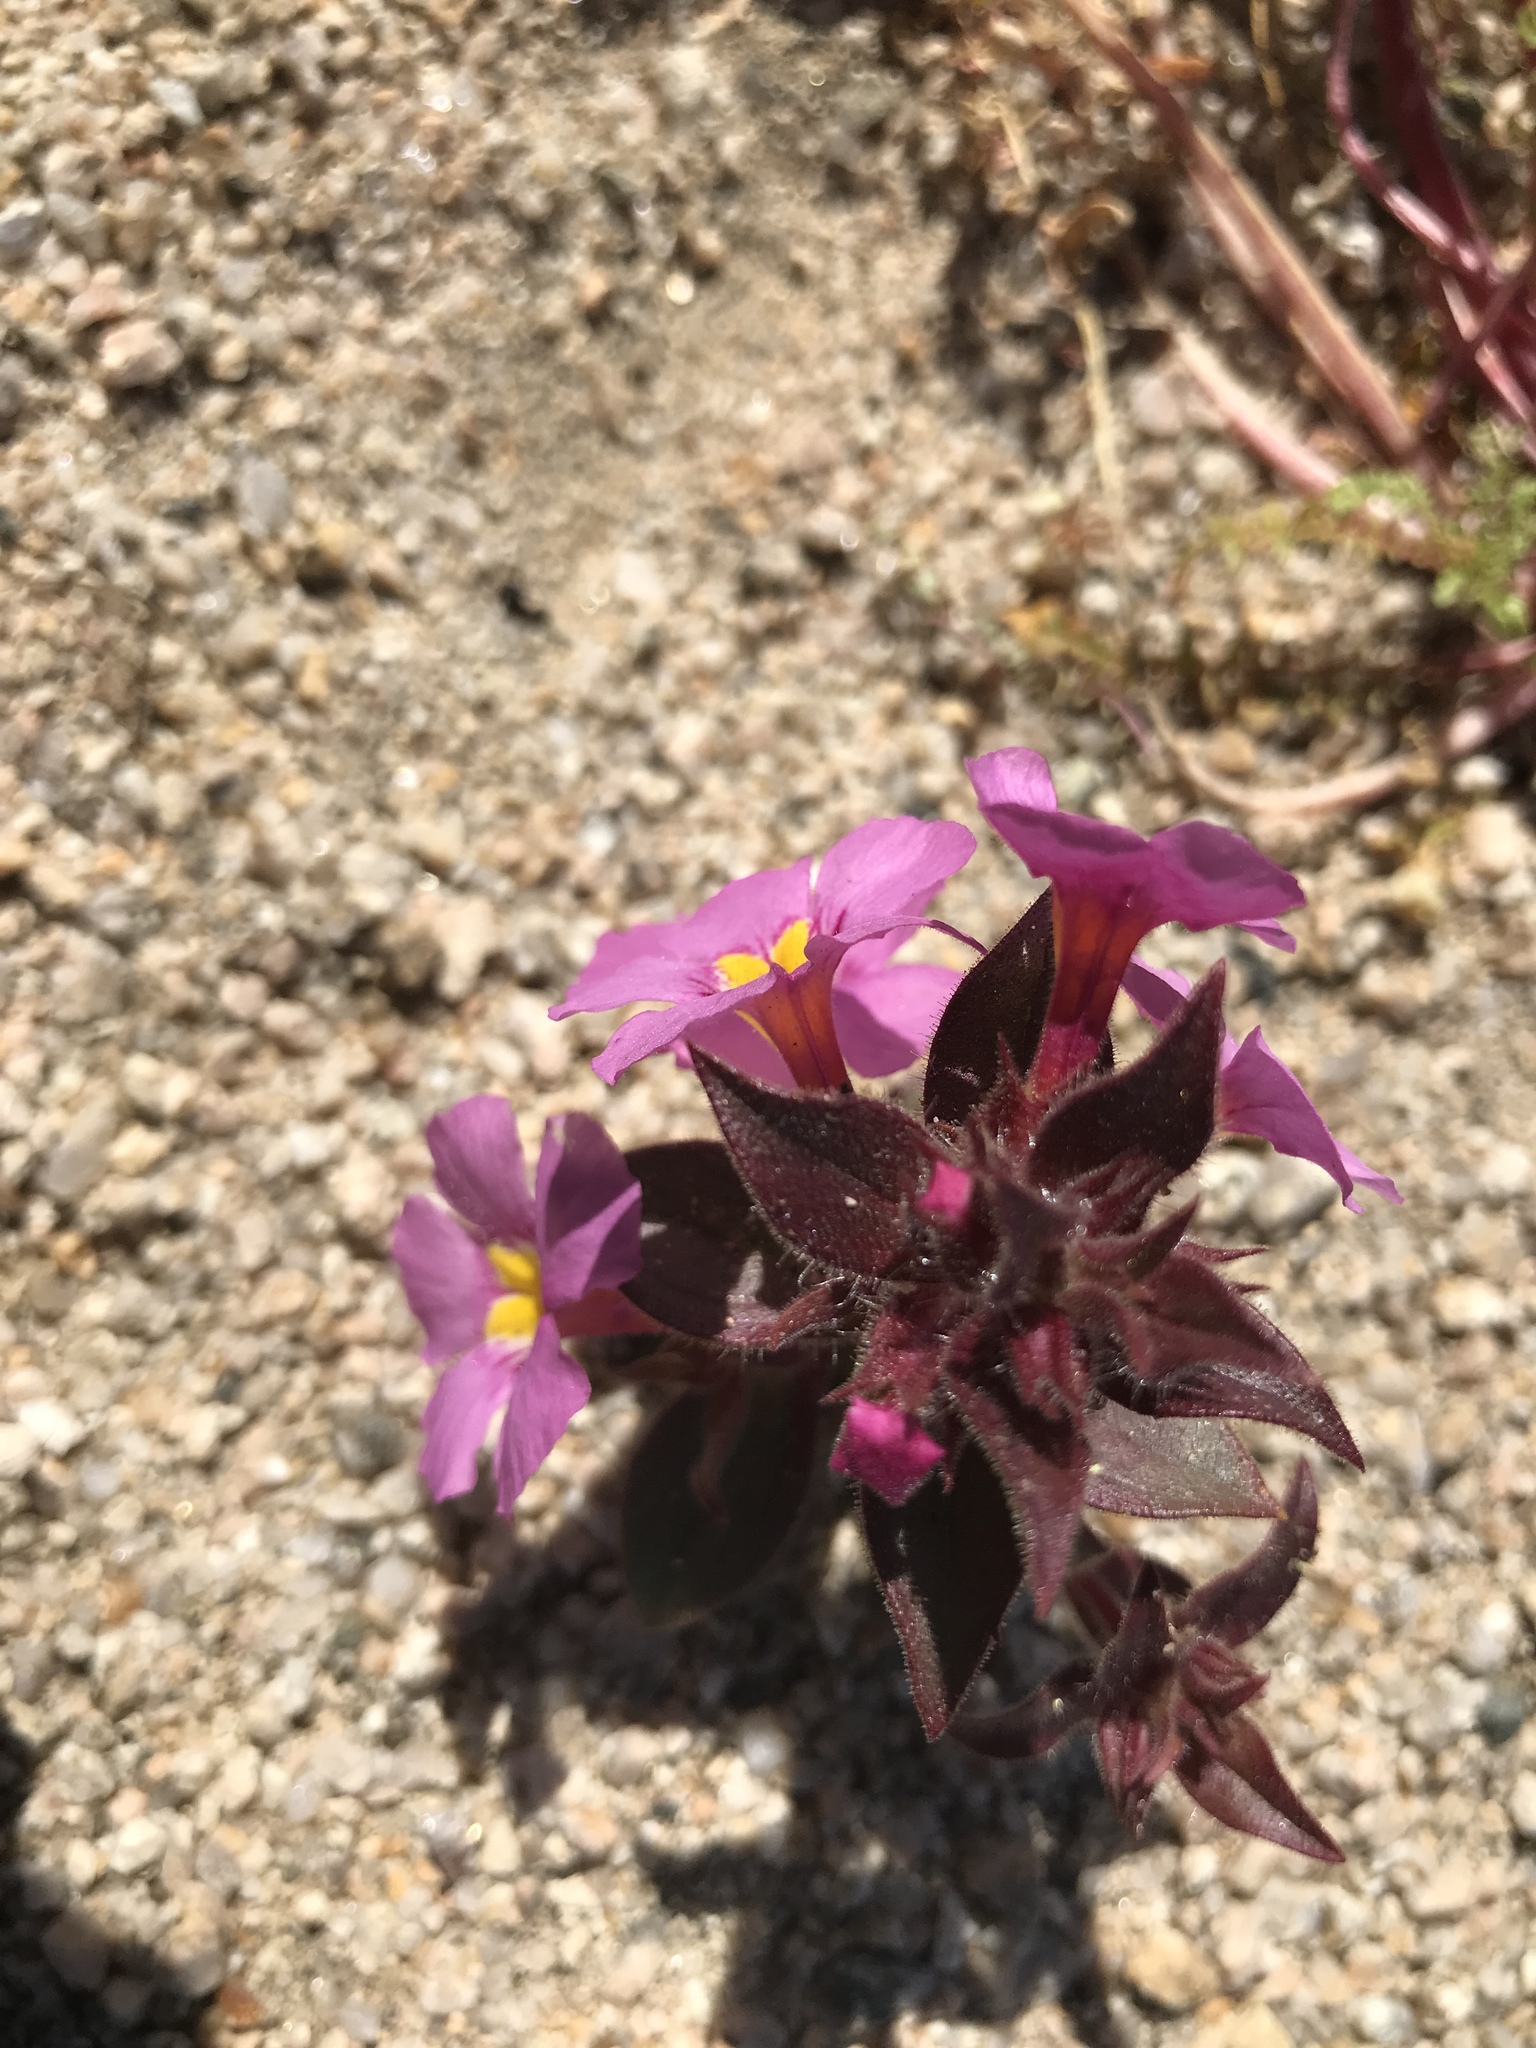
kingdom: Plantae
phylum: Tracheophyta
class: Magnoliopsida
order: Lamiales
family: Phrymaceae
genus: Diplacus
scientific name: Diplacus bigelovii
